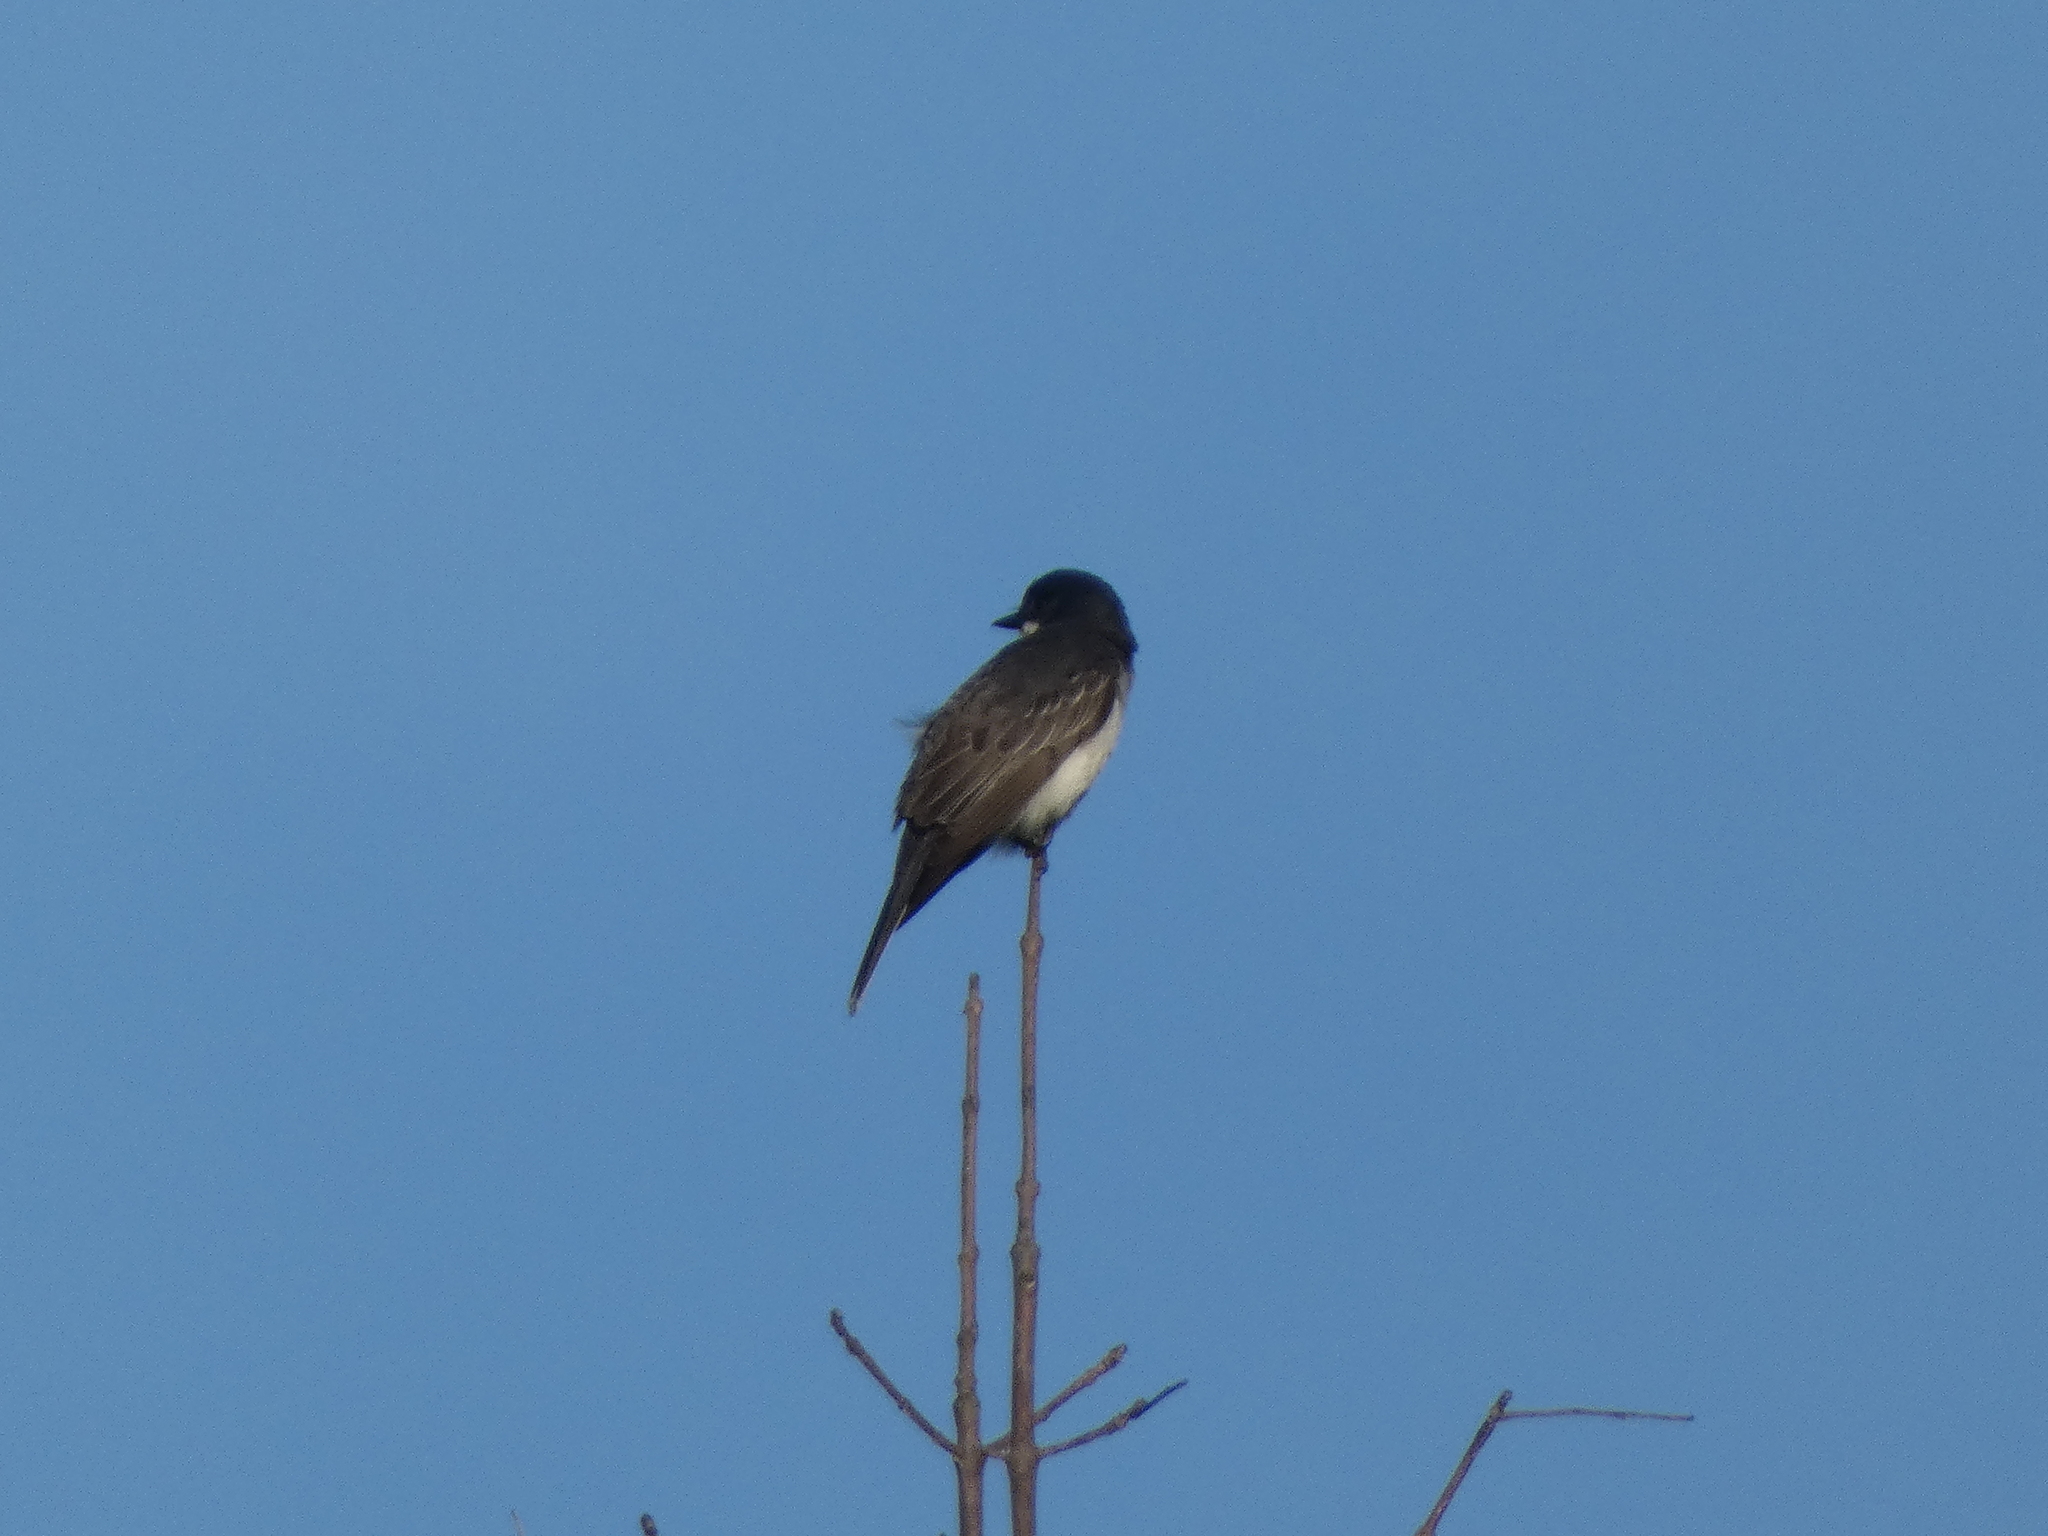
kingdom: Animalia
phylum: Chordata
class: Aves
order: Passeriformes
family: Tyrannidae
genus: Tyrannus
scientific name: Tyrannus tyrannus
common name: Eastern kingbird
